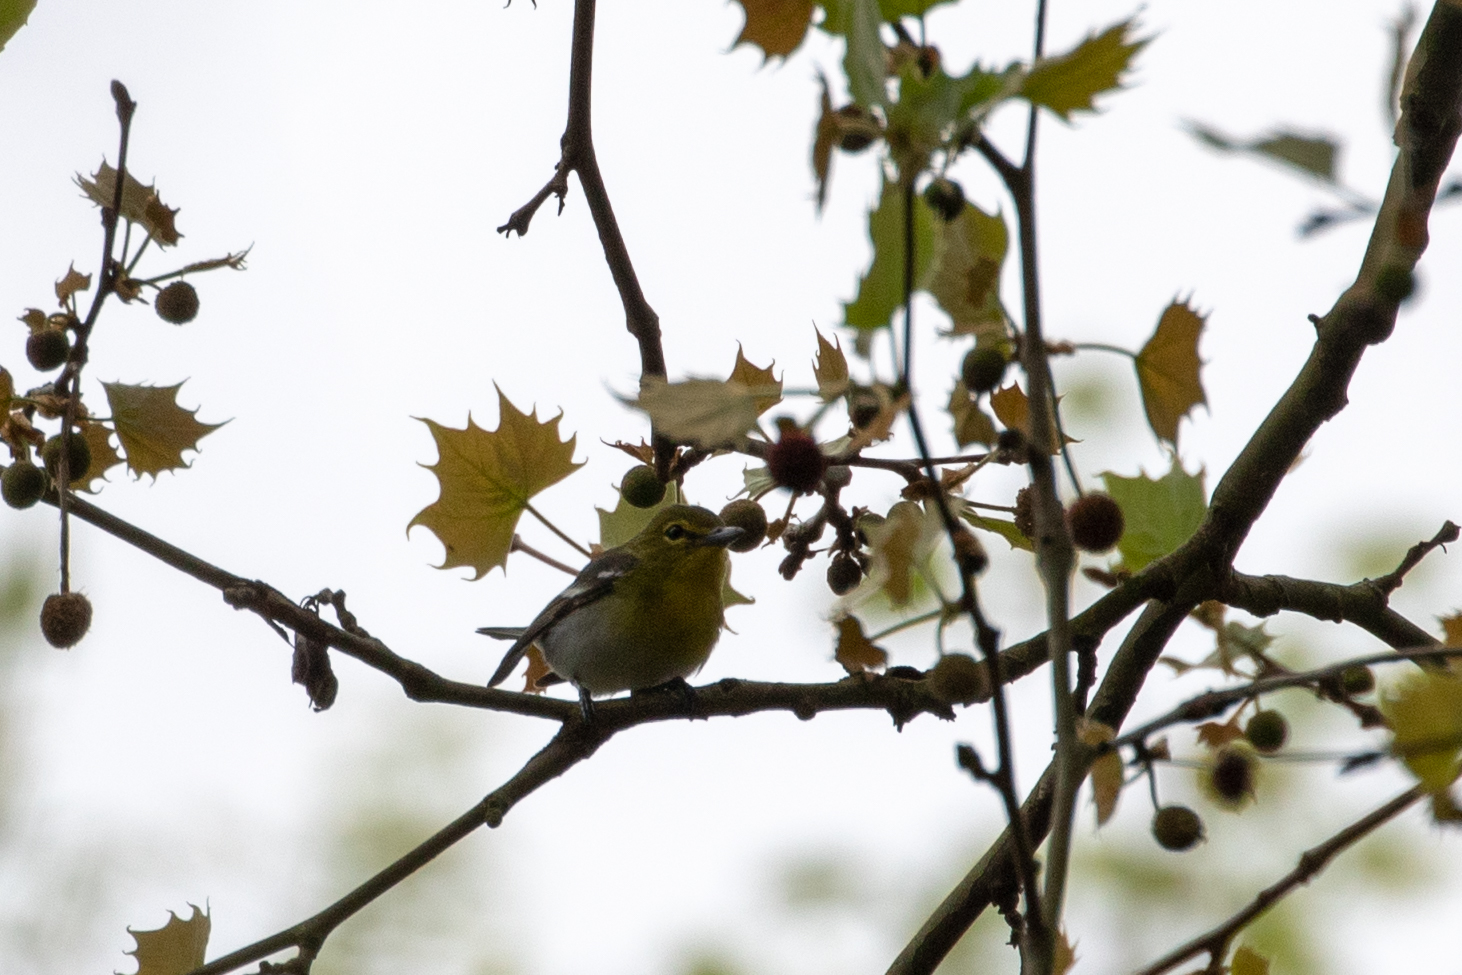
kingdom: Animalia
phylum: Chordata
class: Aves
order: Passeriformes
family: Vireonidae
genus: Vireo
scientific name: Vireo flavifrons
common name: Yellow-throated vireo
